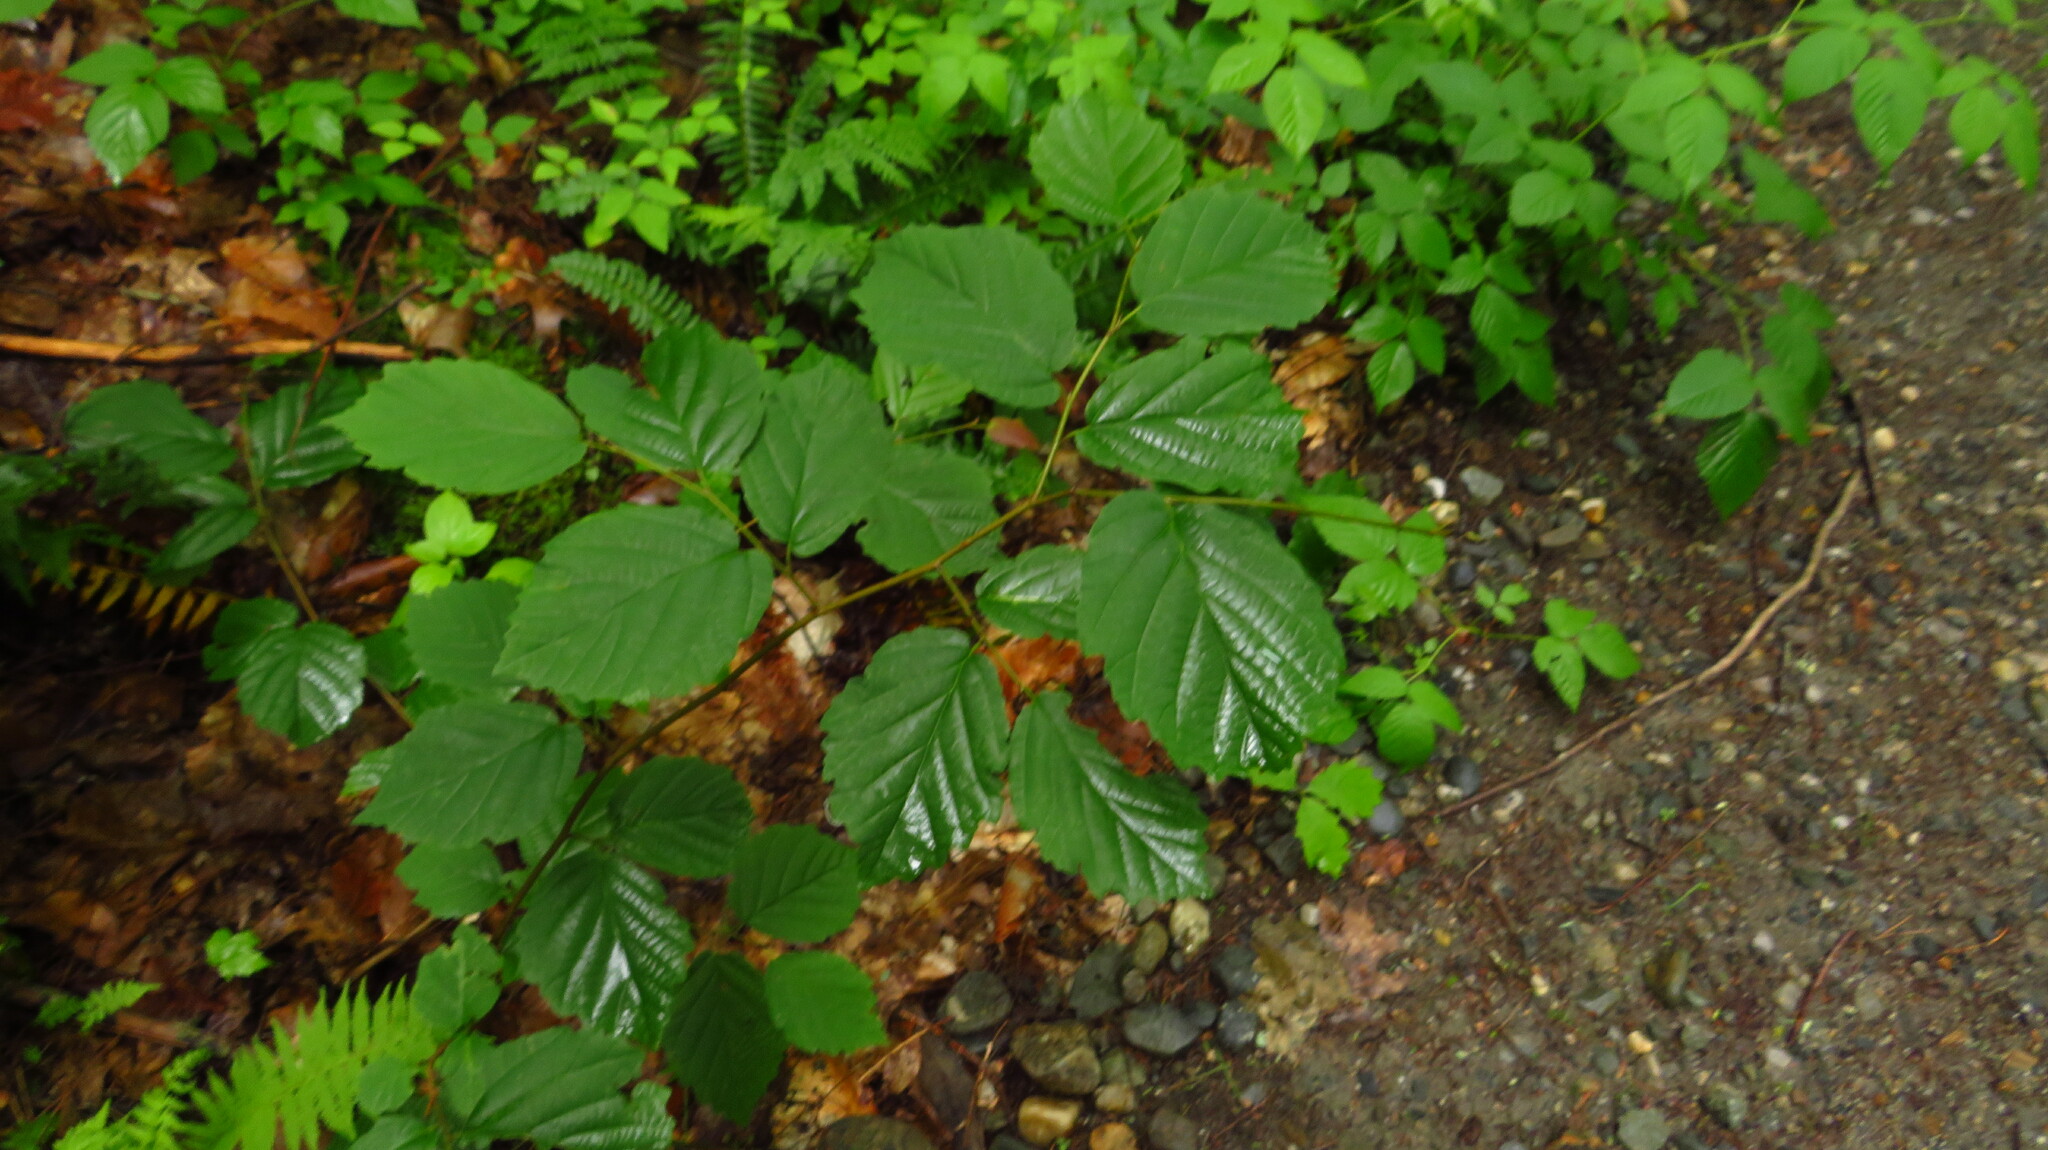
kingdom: Plantae
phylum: Tracheophyta
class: Magnoliopsida
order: Fagales
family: Betulaceae
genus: Corylus
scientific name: Corylus
